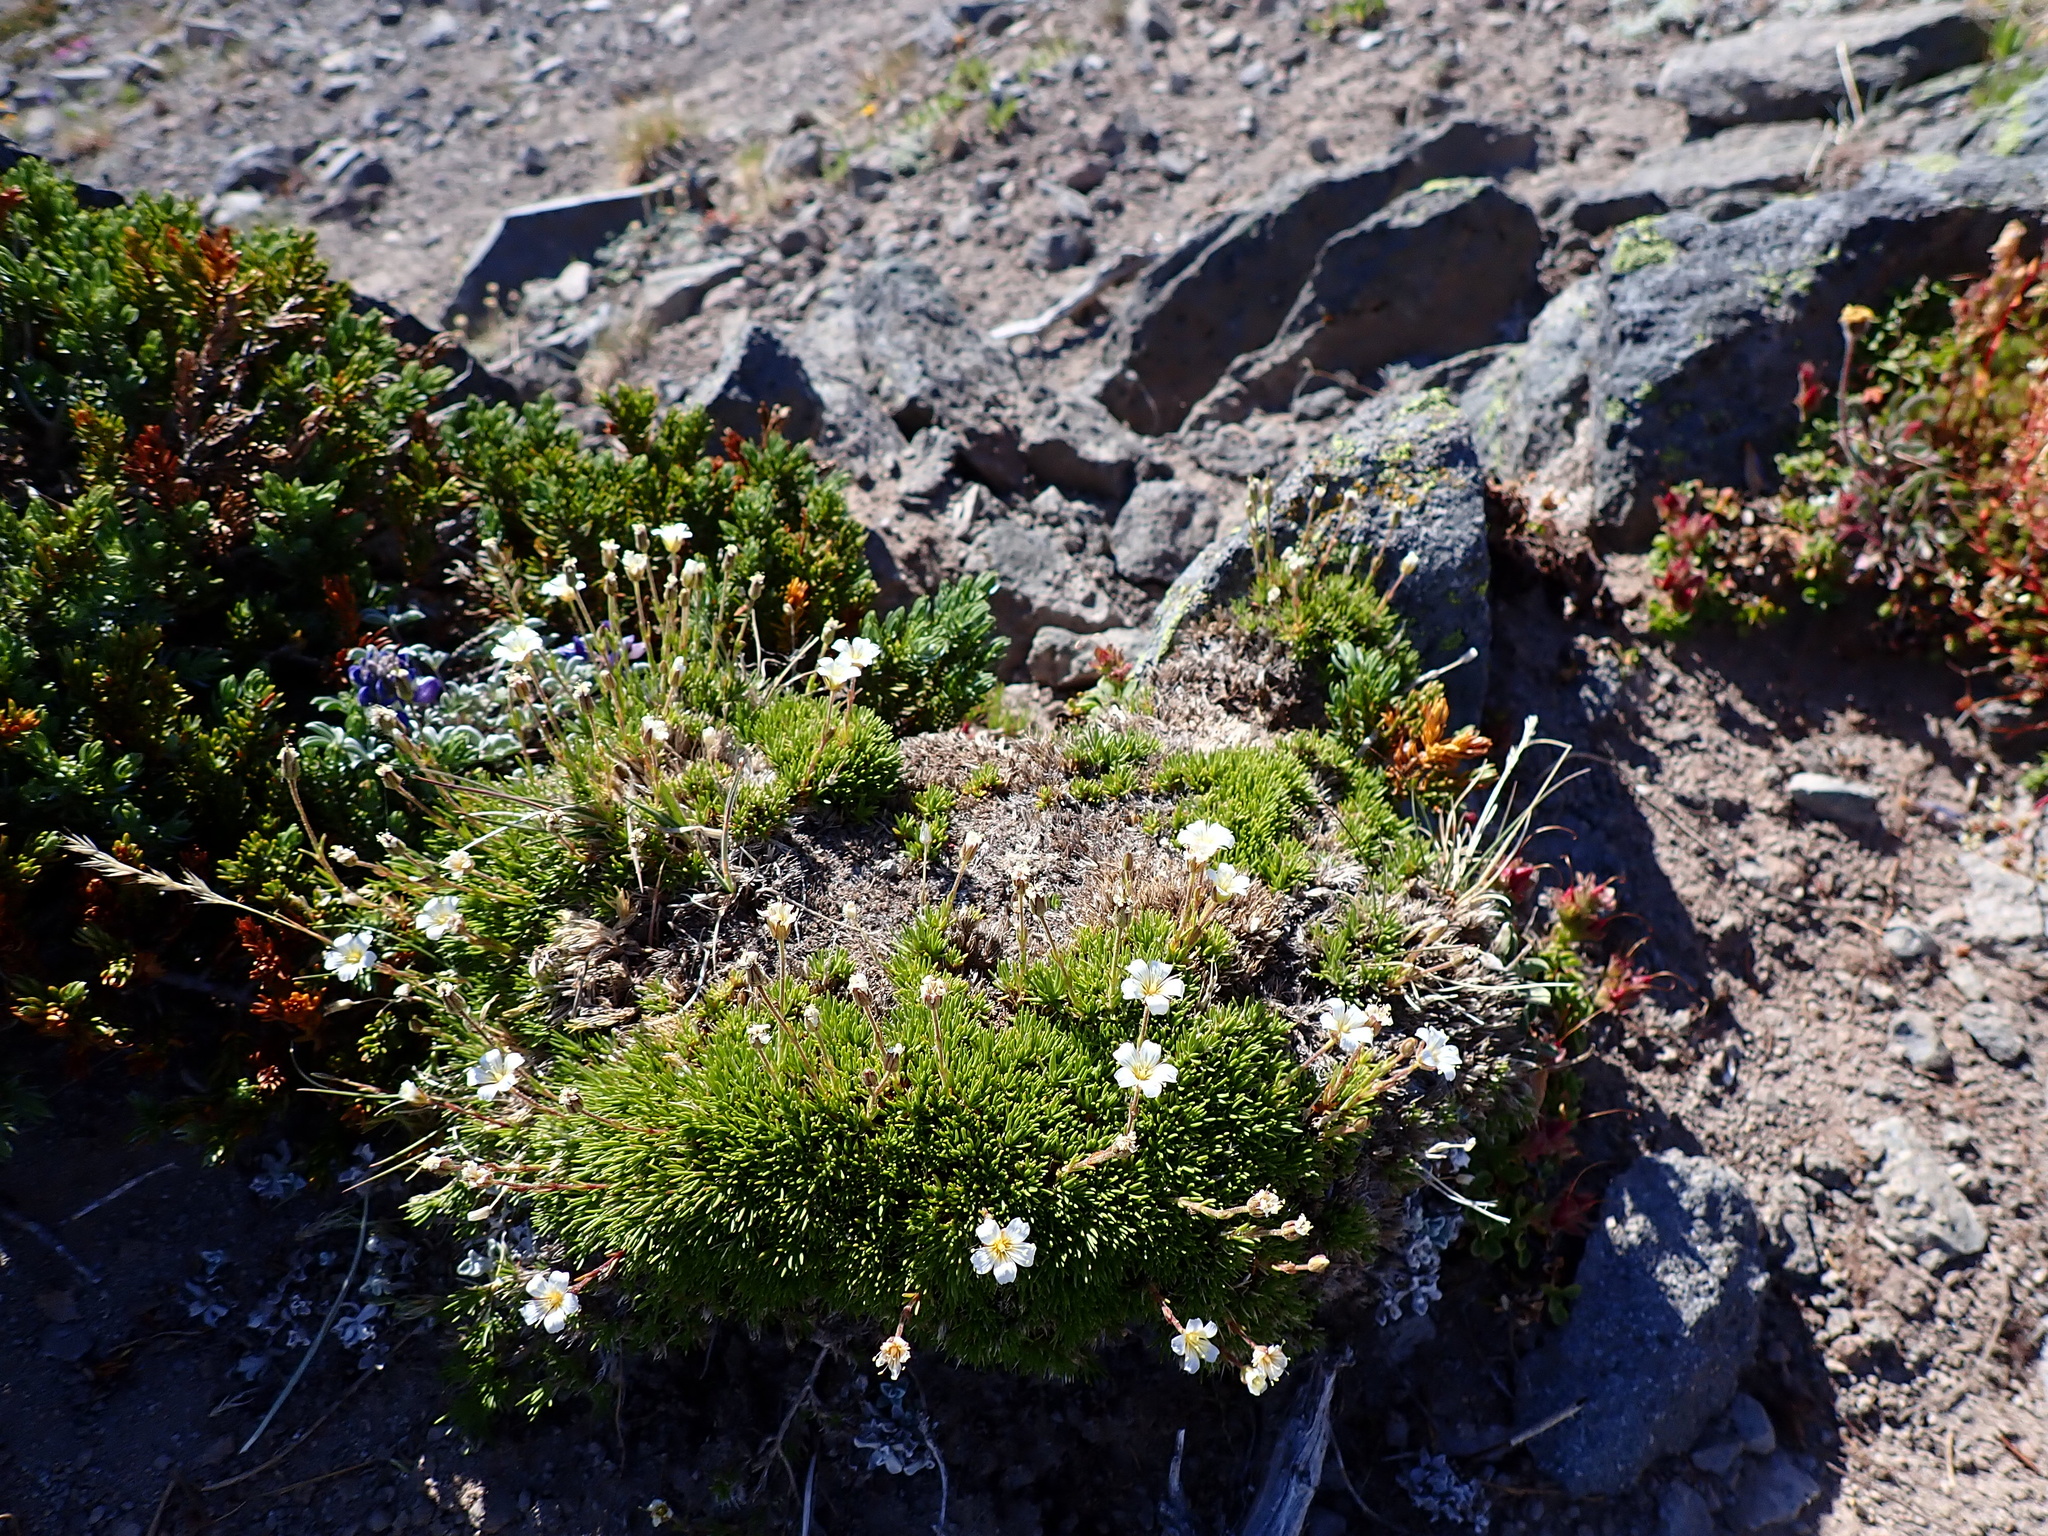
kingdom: Plantae
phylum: Tracheophyta
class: Magnoliopsida
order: Caryophyllales
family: Caryophyllaceae
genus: Cherleria
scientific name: Cherleria obtusiloba
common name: Alpine stitchwort
